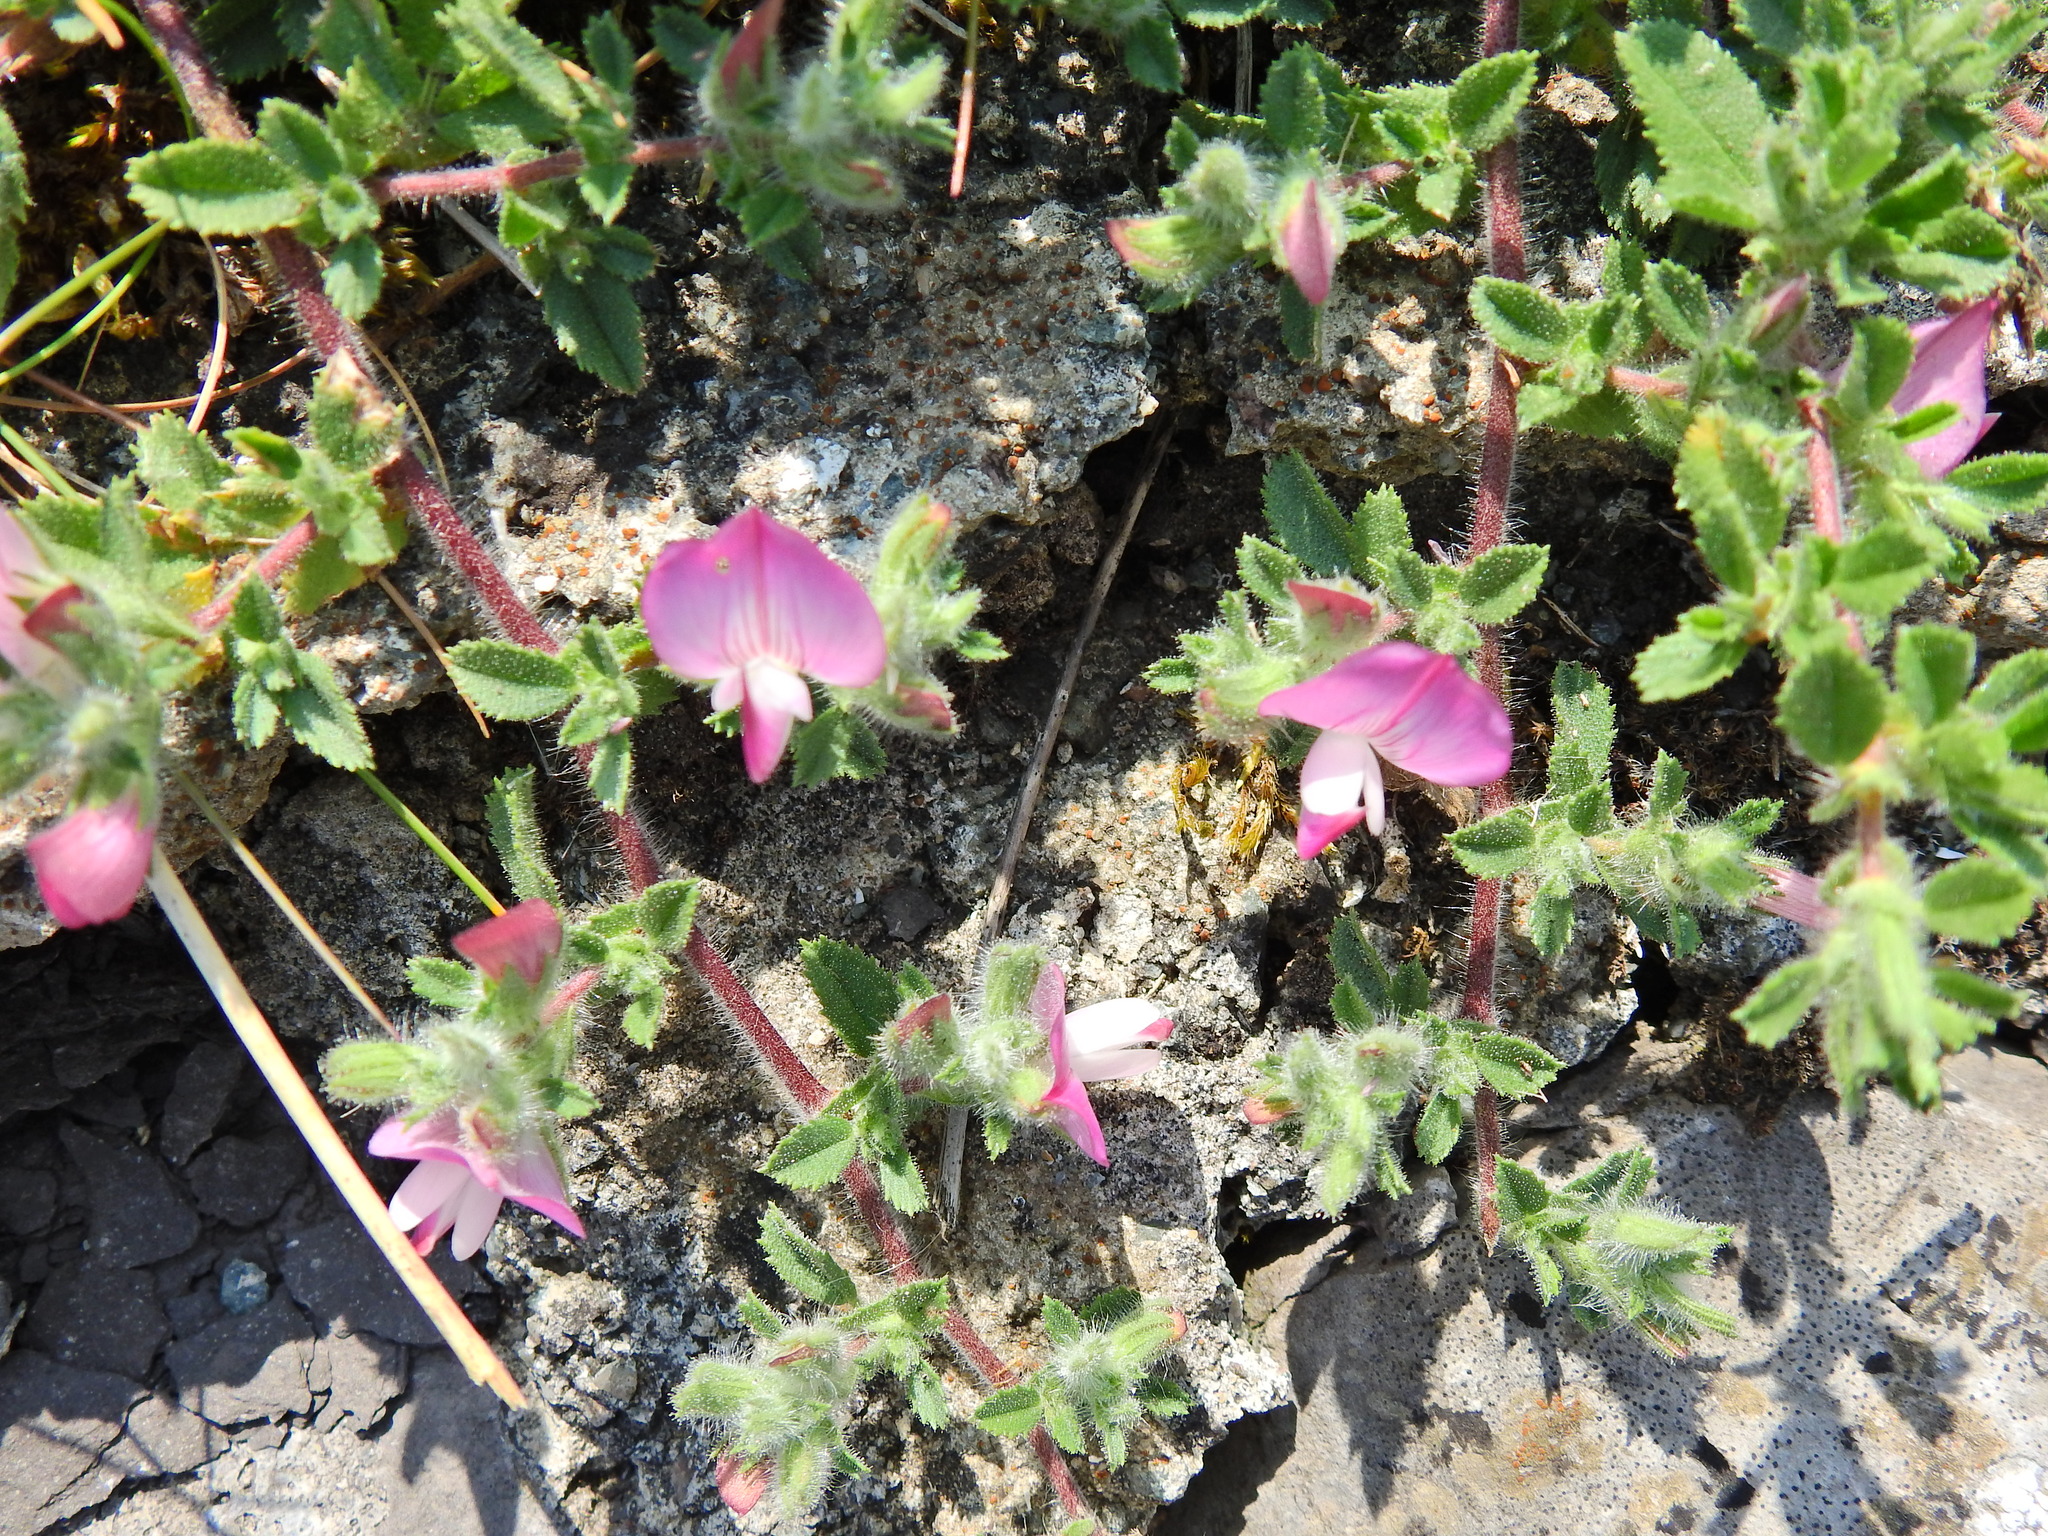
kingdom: Plantae
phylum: Tracheophyta
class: Magnoliopsida
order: Fabales
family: Fabaceae
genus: Ononis
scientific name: Ononis spinosa
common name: Spiny restharrow
